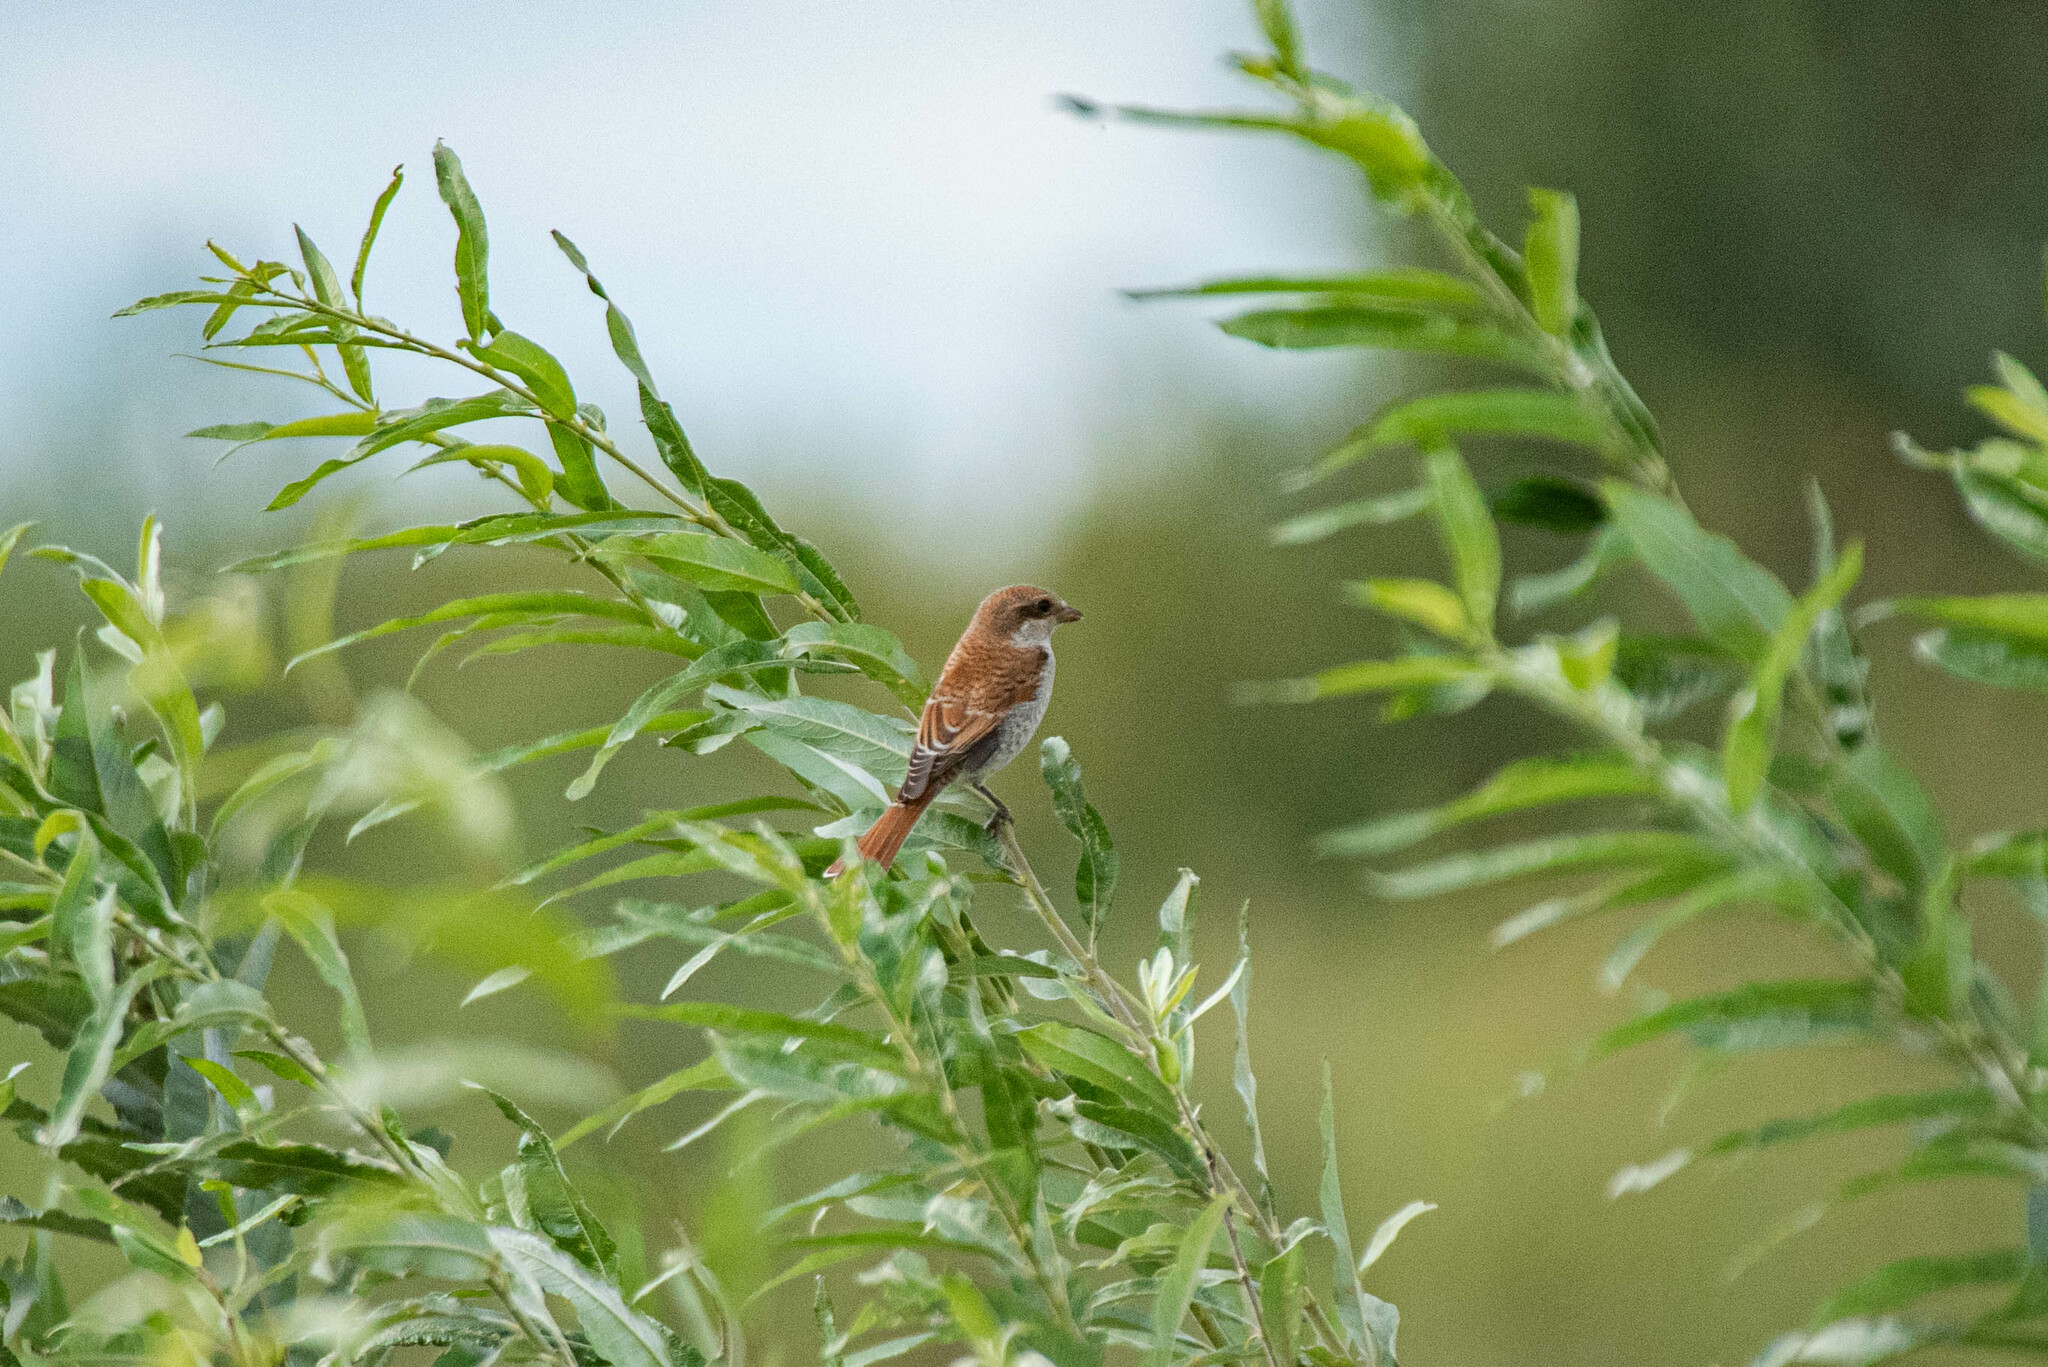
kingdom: Animalia
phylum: Chordata
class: Aves
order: Passeriformes
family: Laniidae
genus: Lanius
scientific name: Lanius collurio
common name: Red-backed shrike
